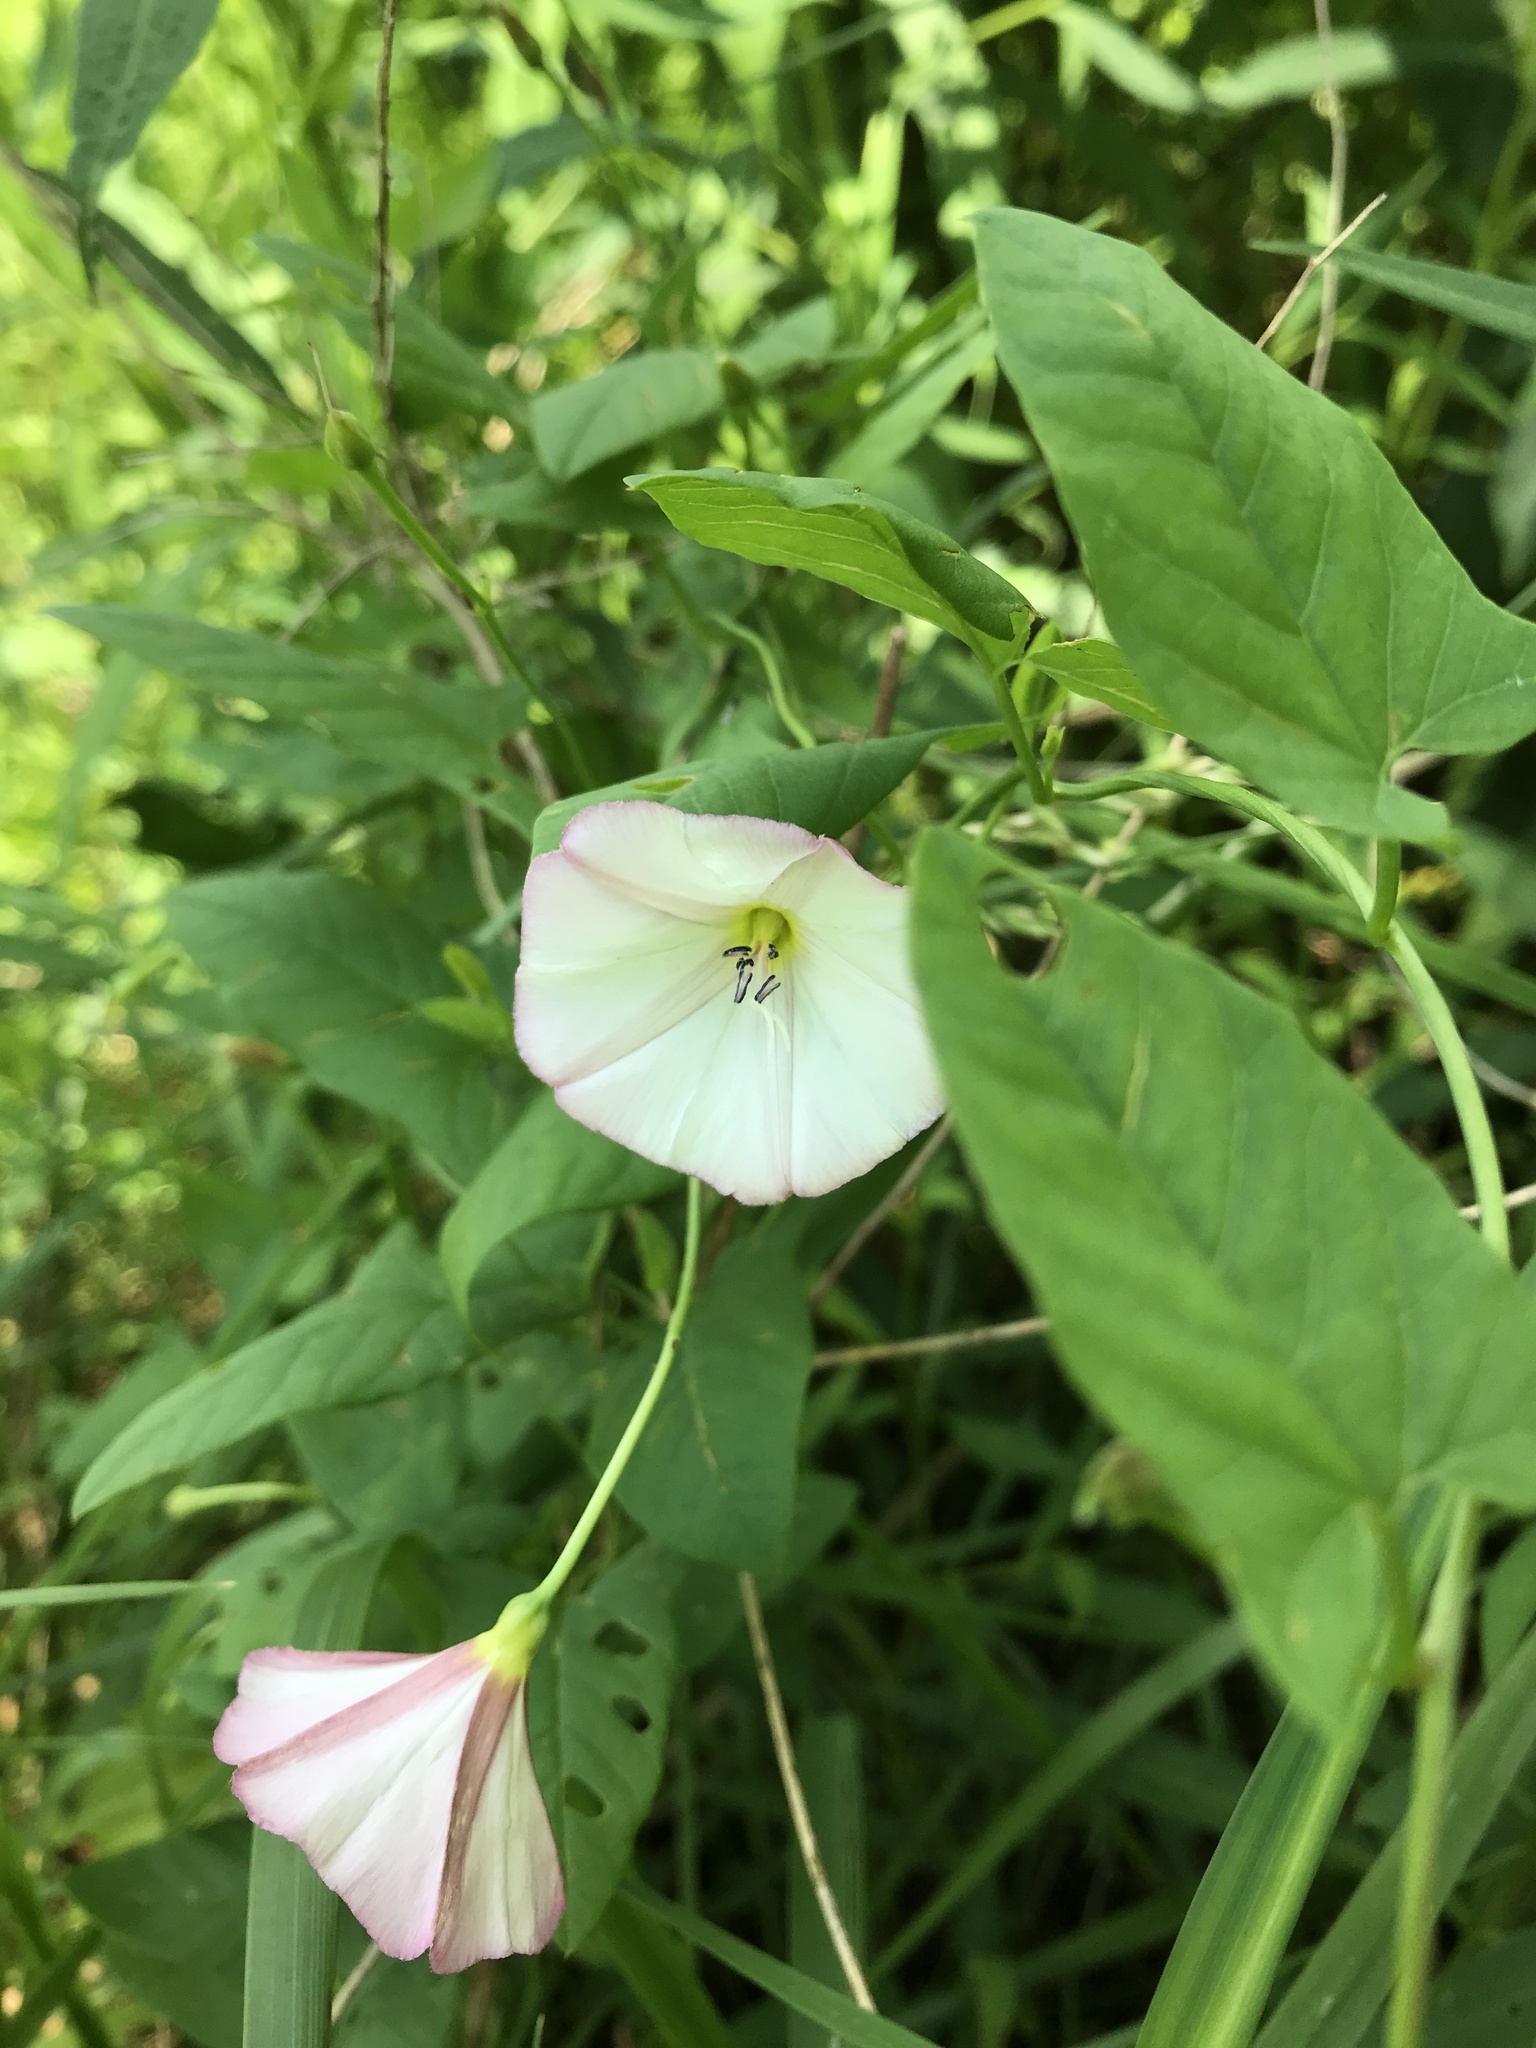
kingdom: Plantae
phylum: Tracheophyta
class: Magnoliopsida
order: Solanales
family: Convolvulaceae
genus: Convolvulus
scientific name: Convolvulus arvensis
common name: Field bindweed
